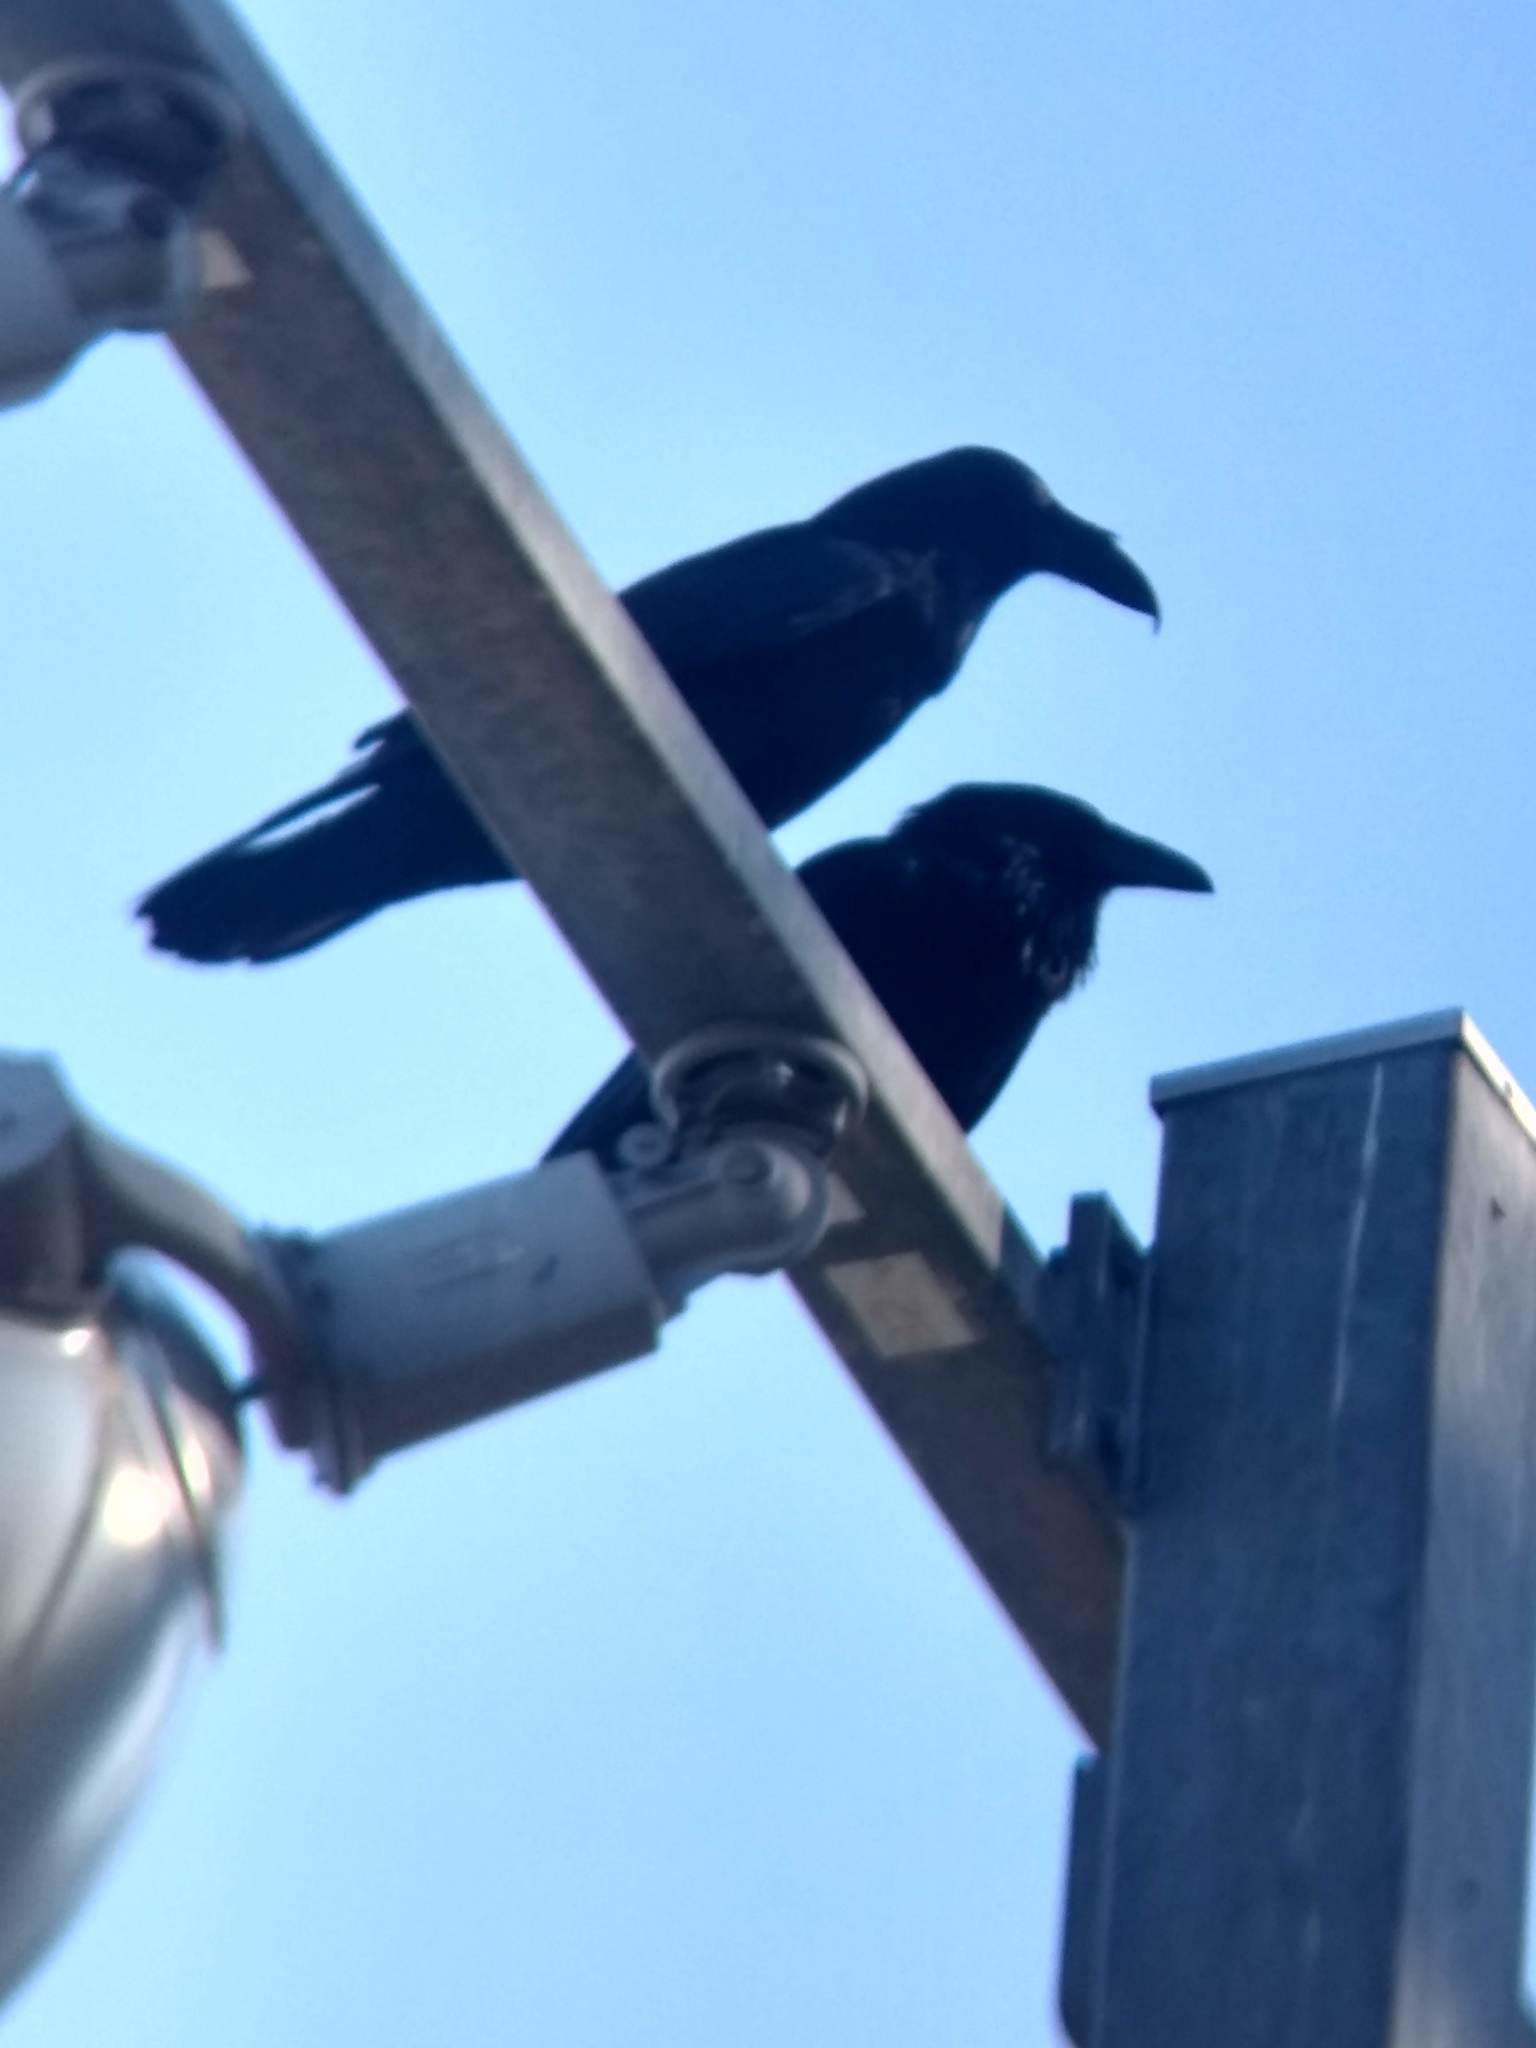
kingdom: Animalia
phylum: Chordata
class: Aves
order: Passeriformes
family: Corvidae
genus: Corvus
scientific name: Corvus corax
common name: Common raven
